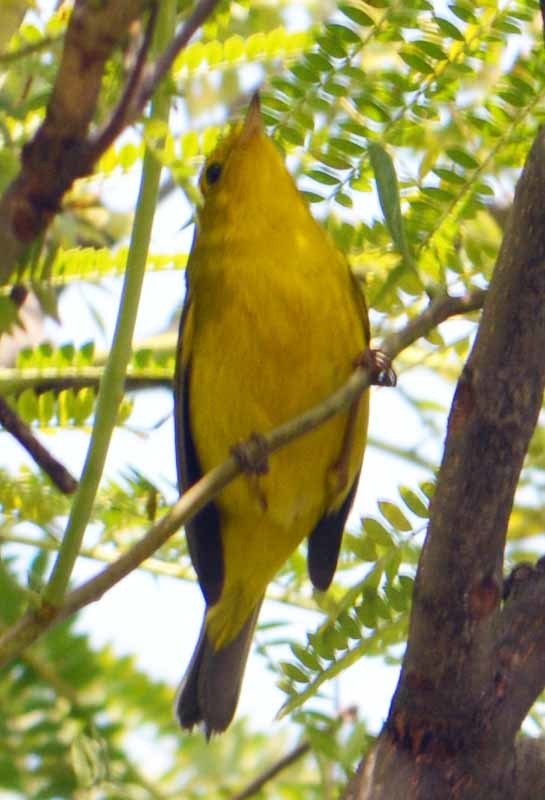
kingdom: Animalia
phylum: Chordata
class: Aves
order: Passeriformes
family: Parulidae
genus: Cardellina
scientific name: Cardellina pusilla
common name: Wilson's warbler
